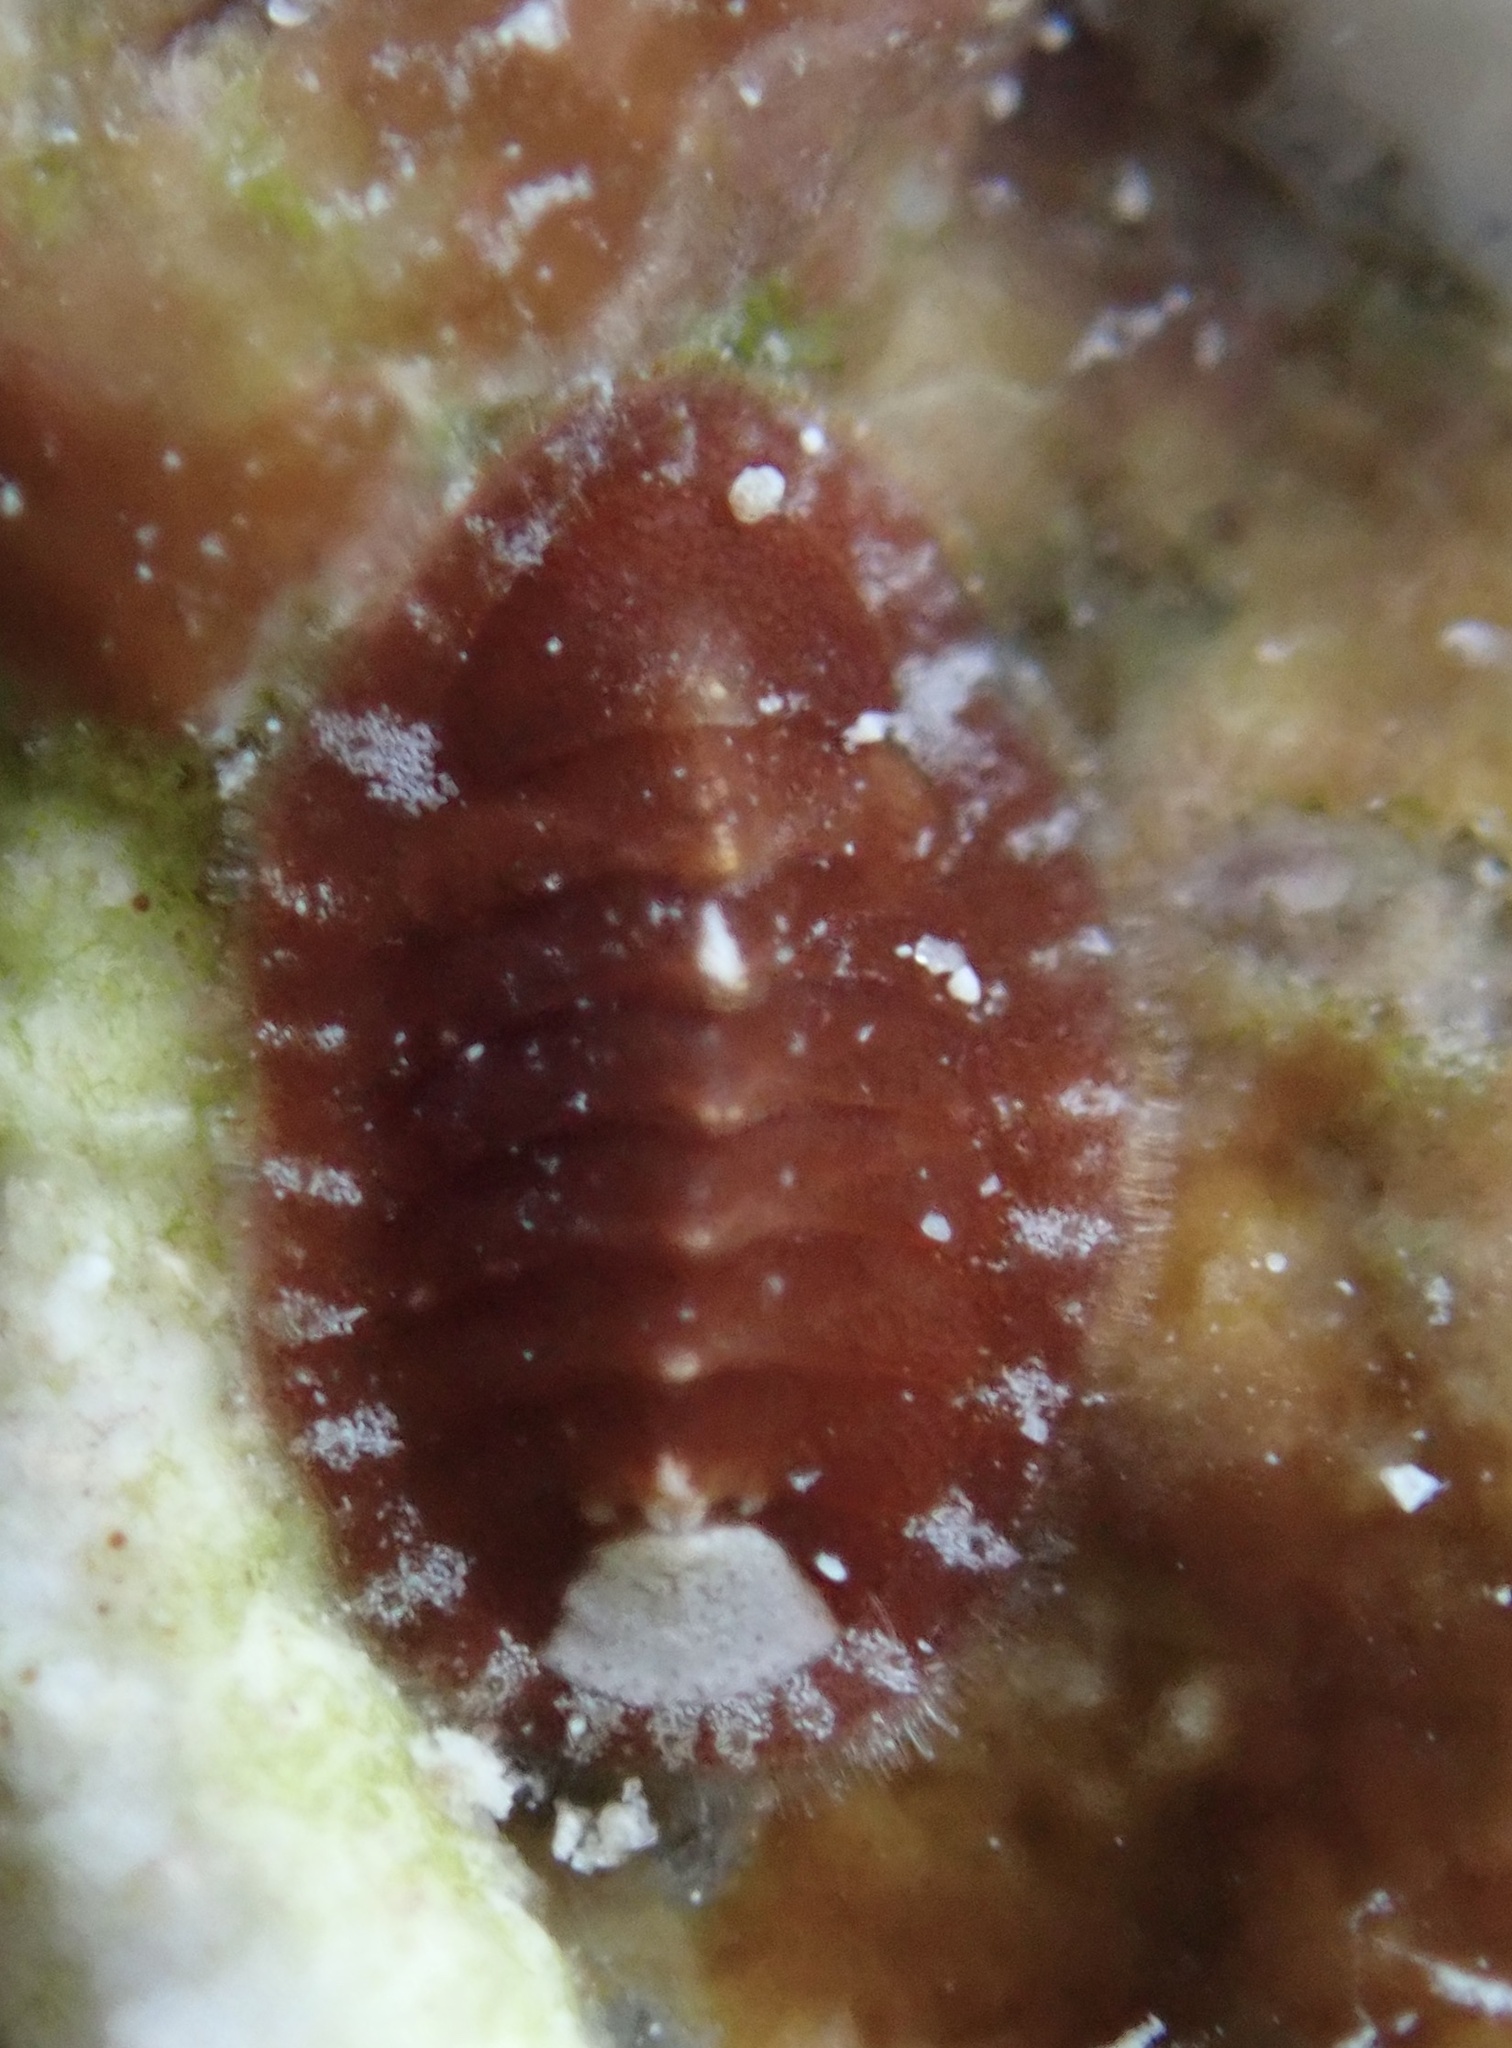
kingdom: Animalia
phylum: Mollusca
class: Polyplacophora
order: Chitonida
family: Tonicellidae
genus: Lepidochitona
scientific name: Lepidochitona liozonis
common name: Caribbean red chiton
